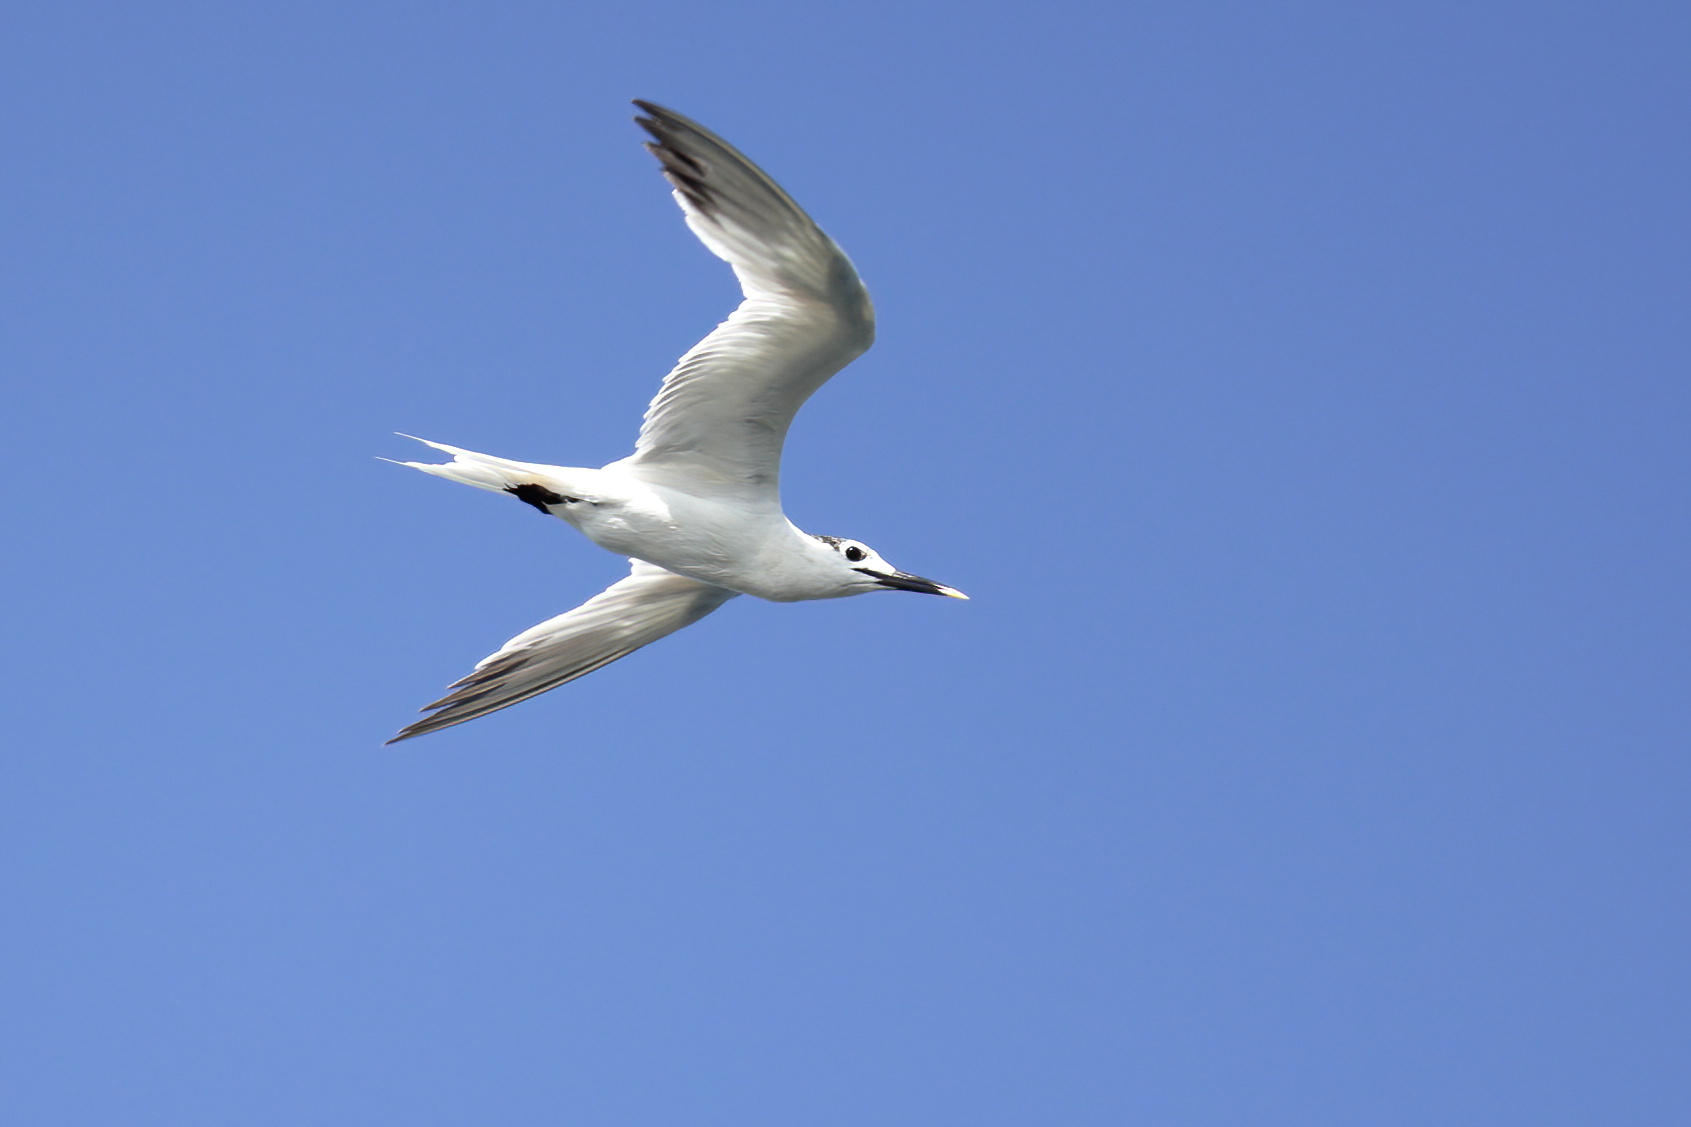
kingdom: Animalia
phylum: Chordata
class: Aves
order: Charadriiformes
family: Laridae
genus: Thalasseus
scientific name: Thalasseus sandvicensis
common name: Sandwich tern
